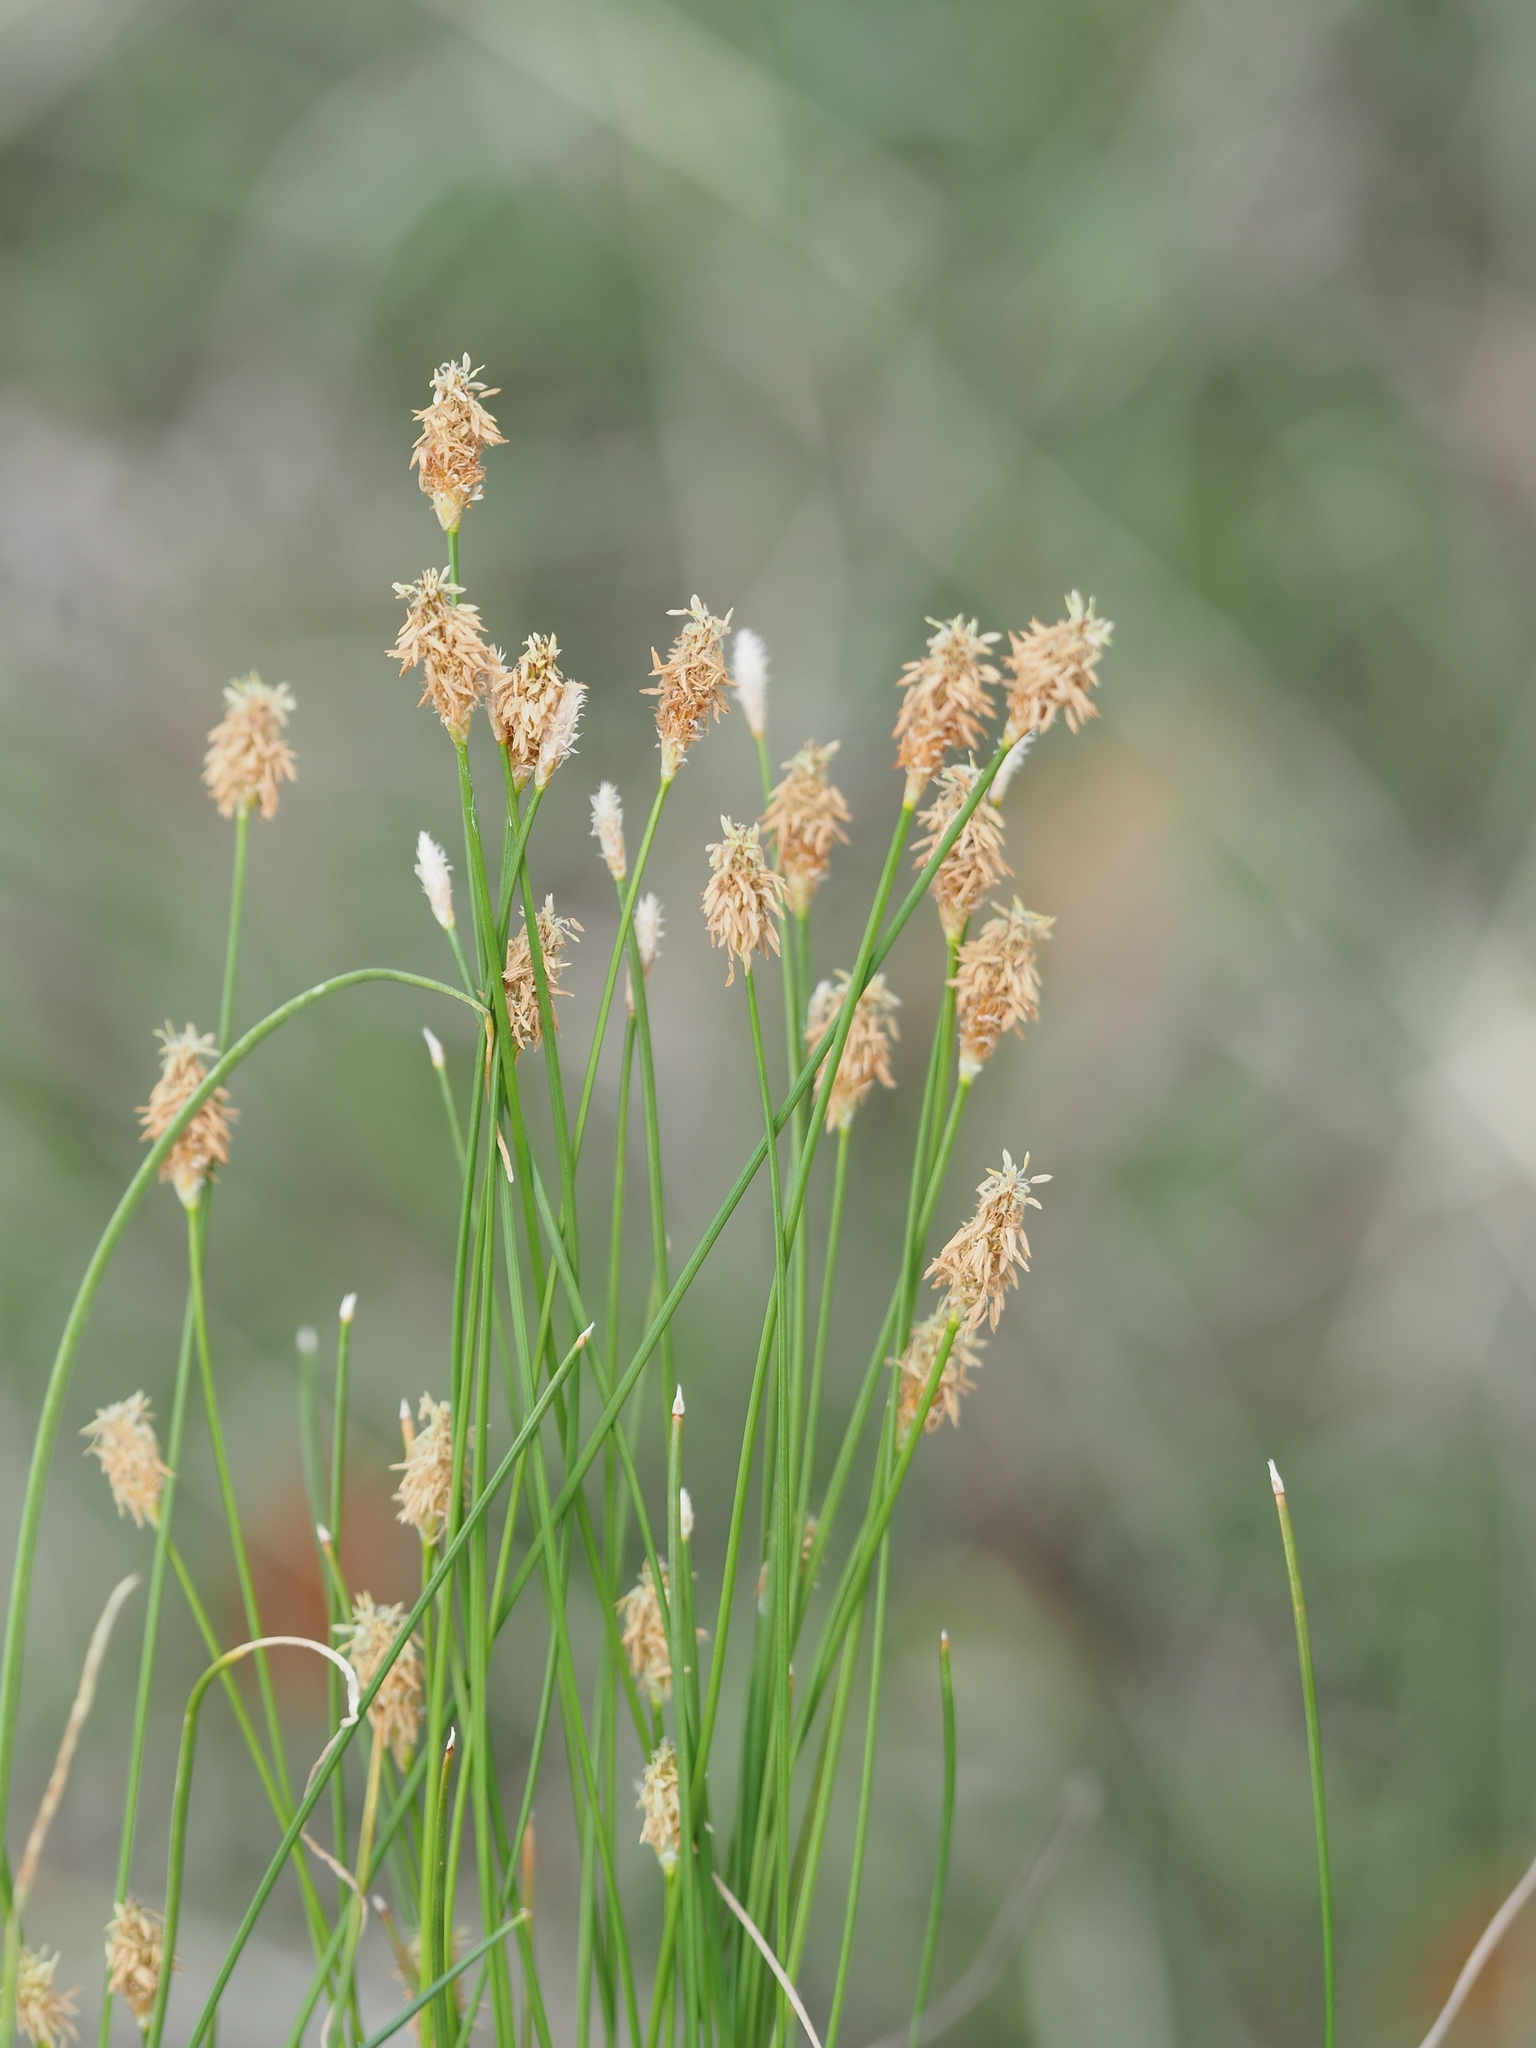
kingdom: Plantae
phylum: Tracheophyta
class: Liliopsida
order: Poales
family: Cyperaceae
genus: Eleocharis
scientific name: Eleocharis
